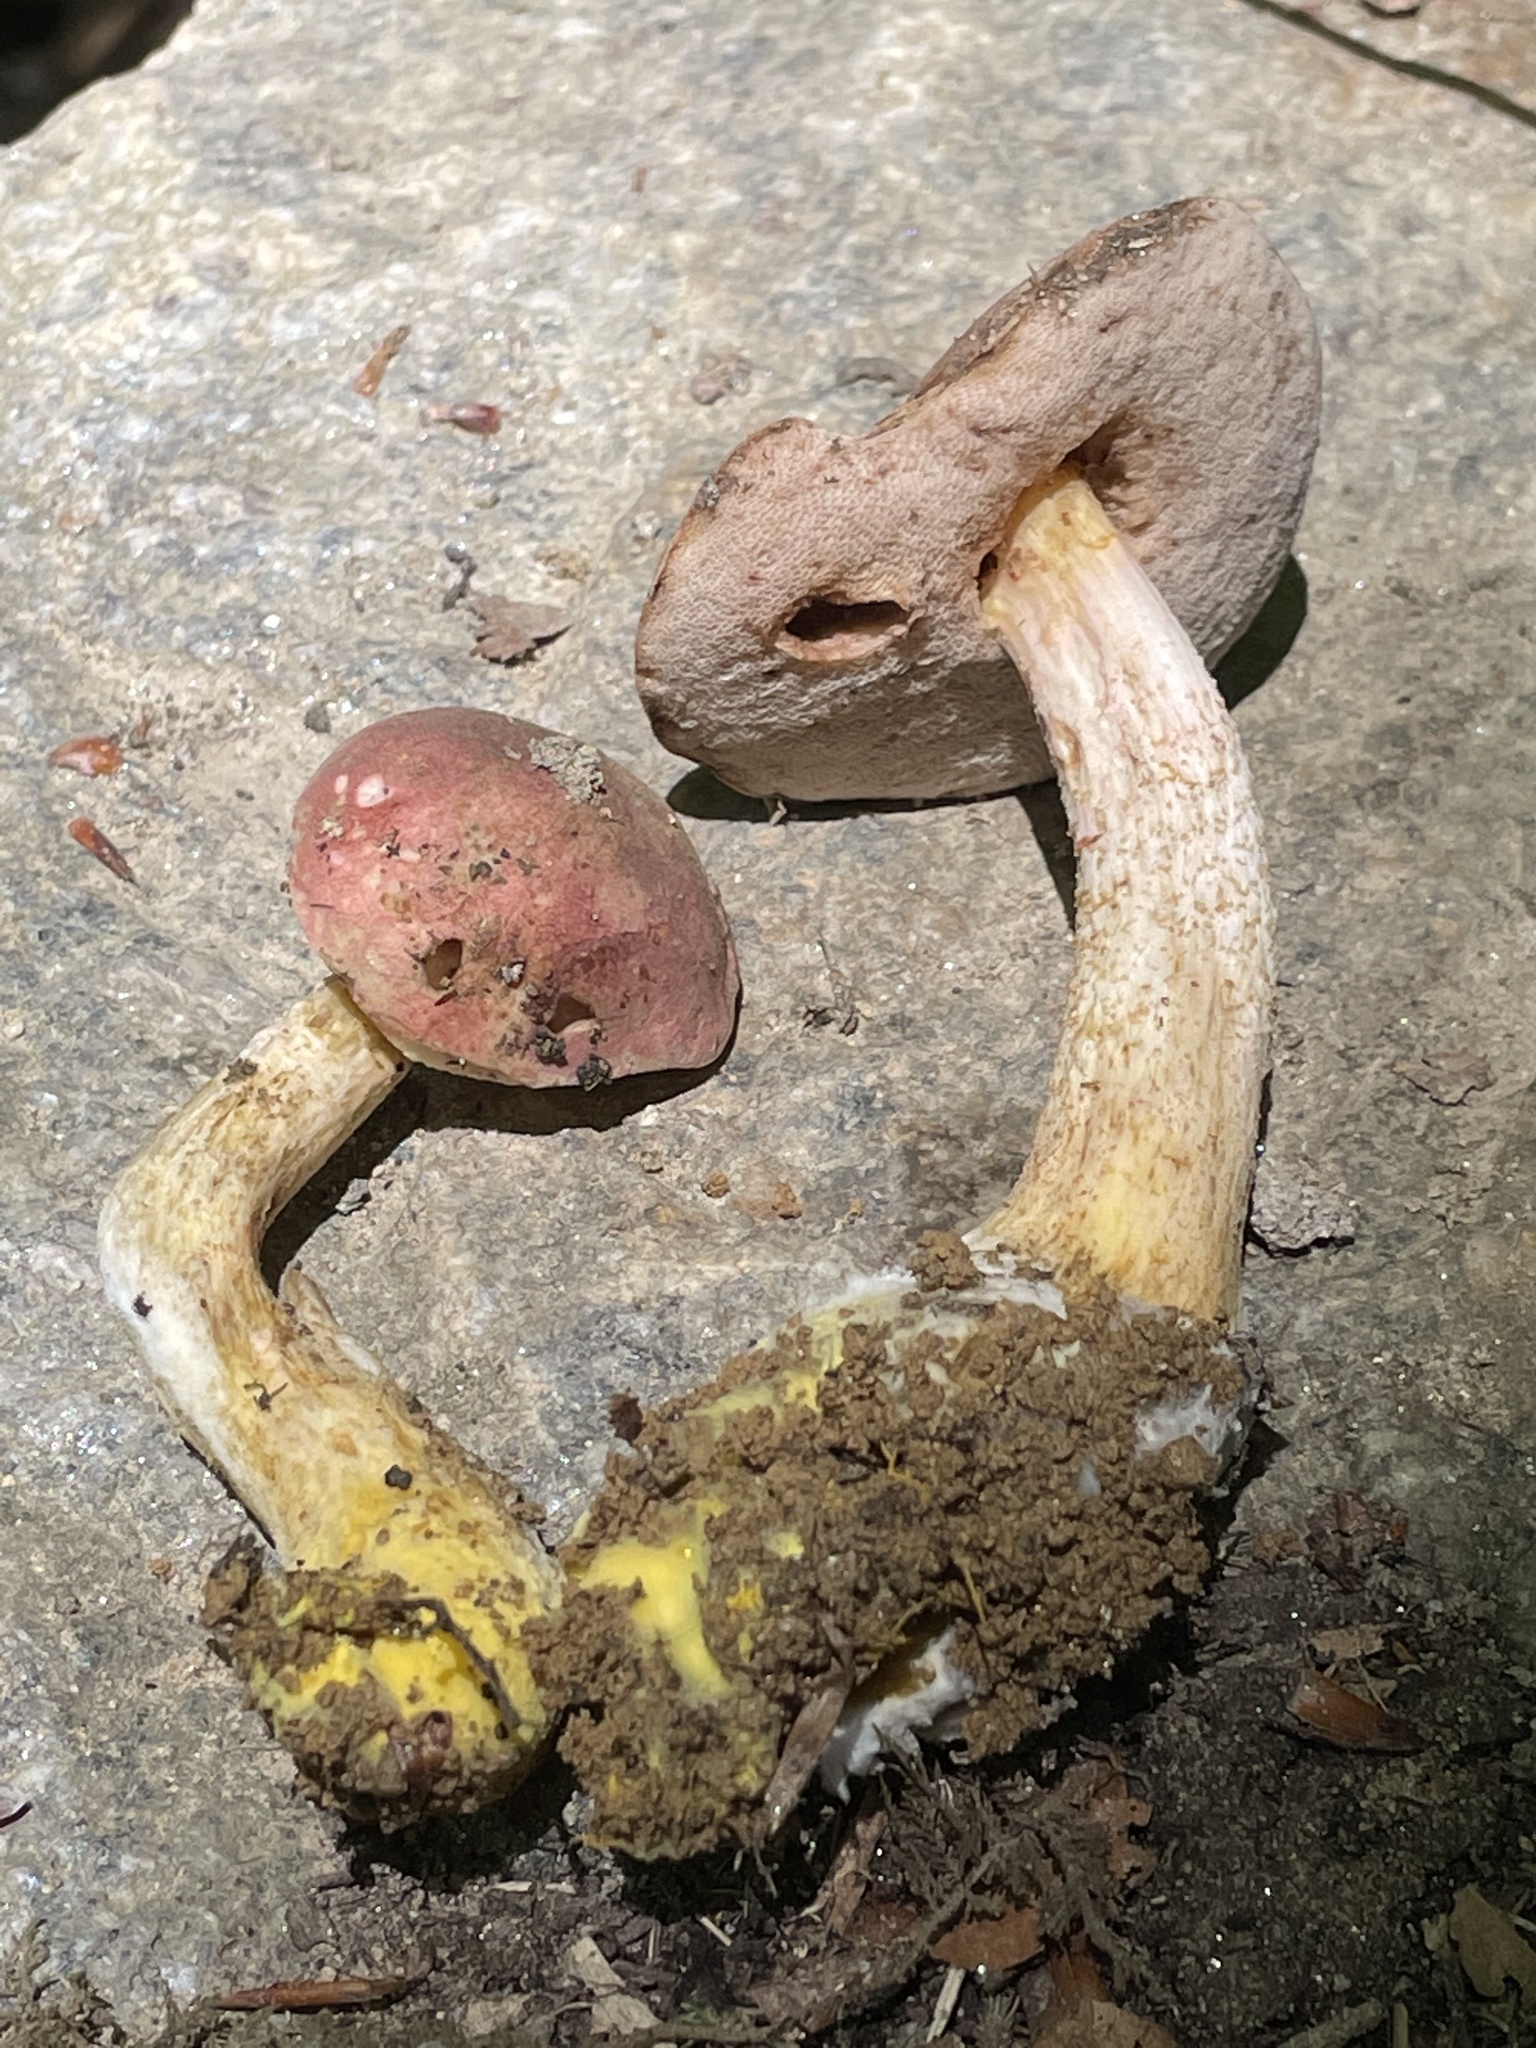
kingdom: Fungi
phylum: Basidiomycota
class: Agaricomycetes
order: Boletales
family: Boletaceae
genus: Harrya
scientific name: Harrya chromipes
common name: Chrome-footed bolete
